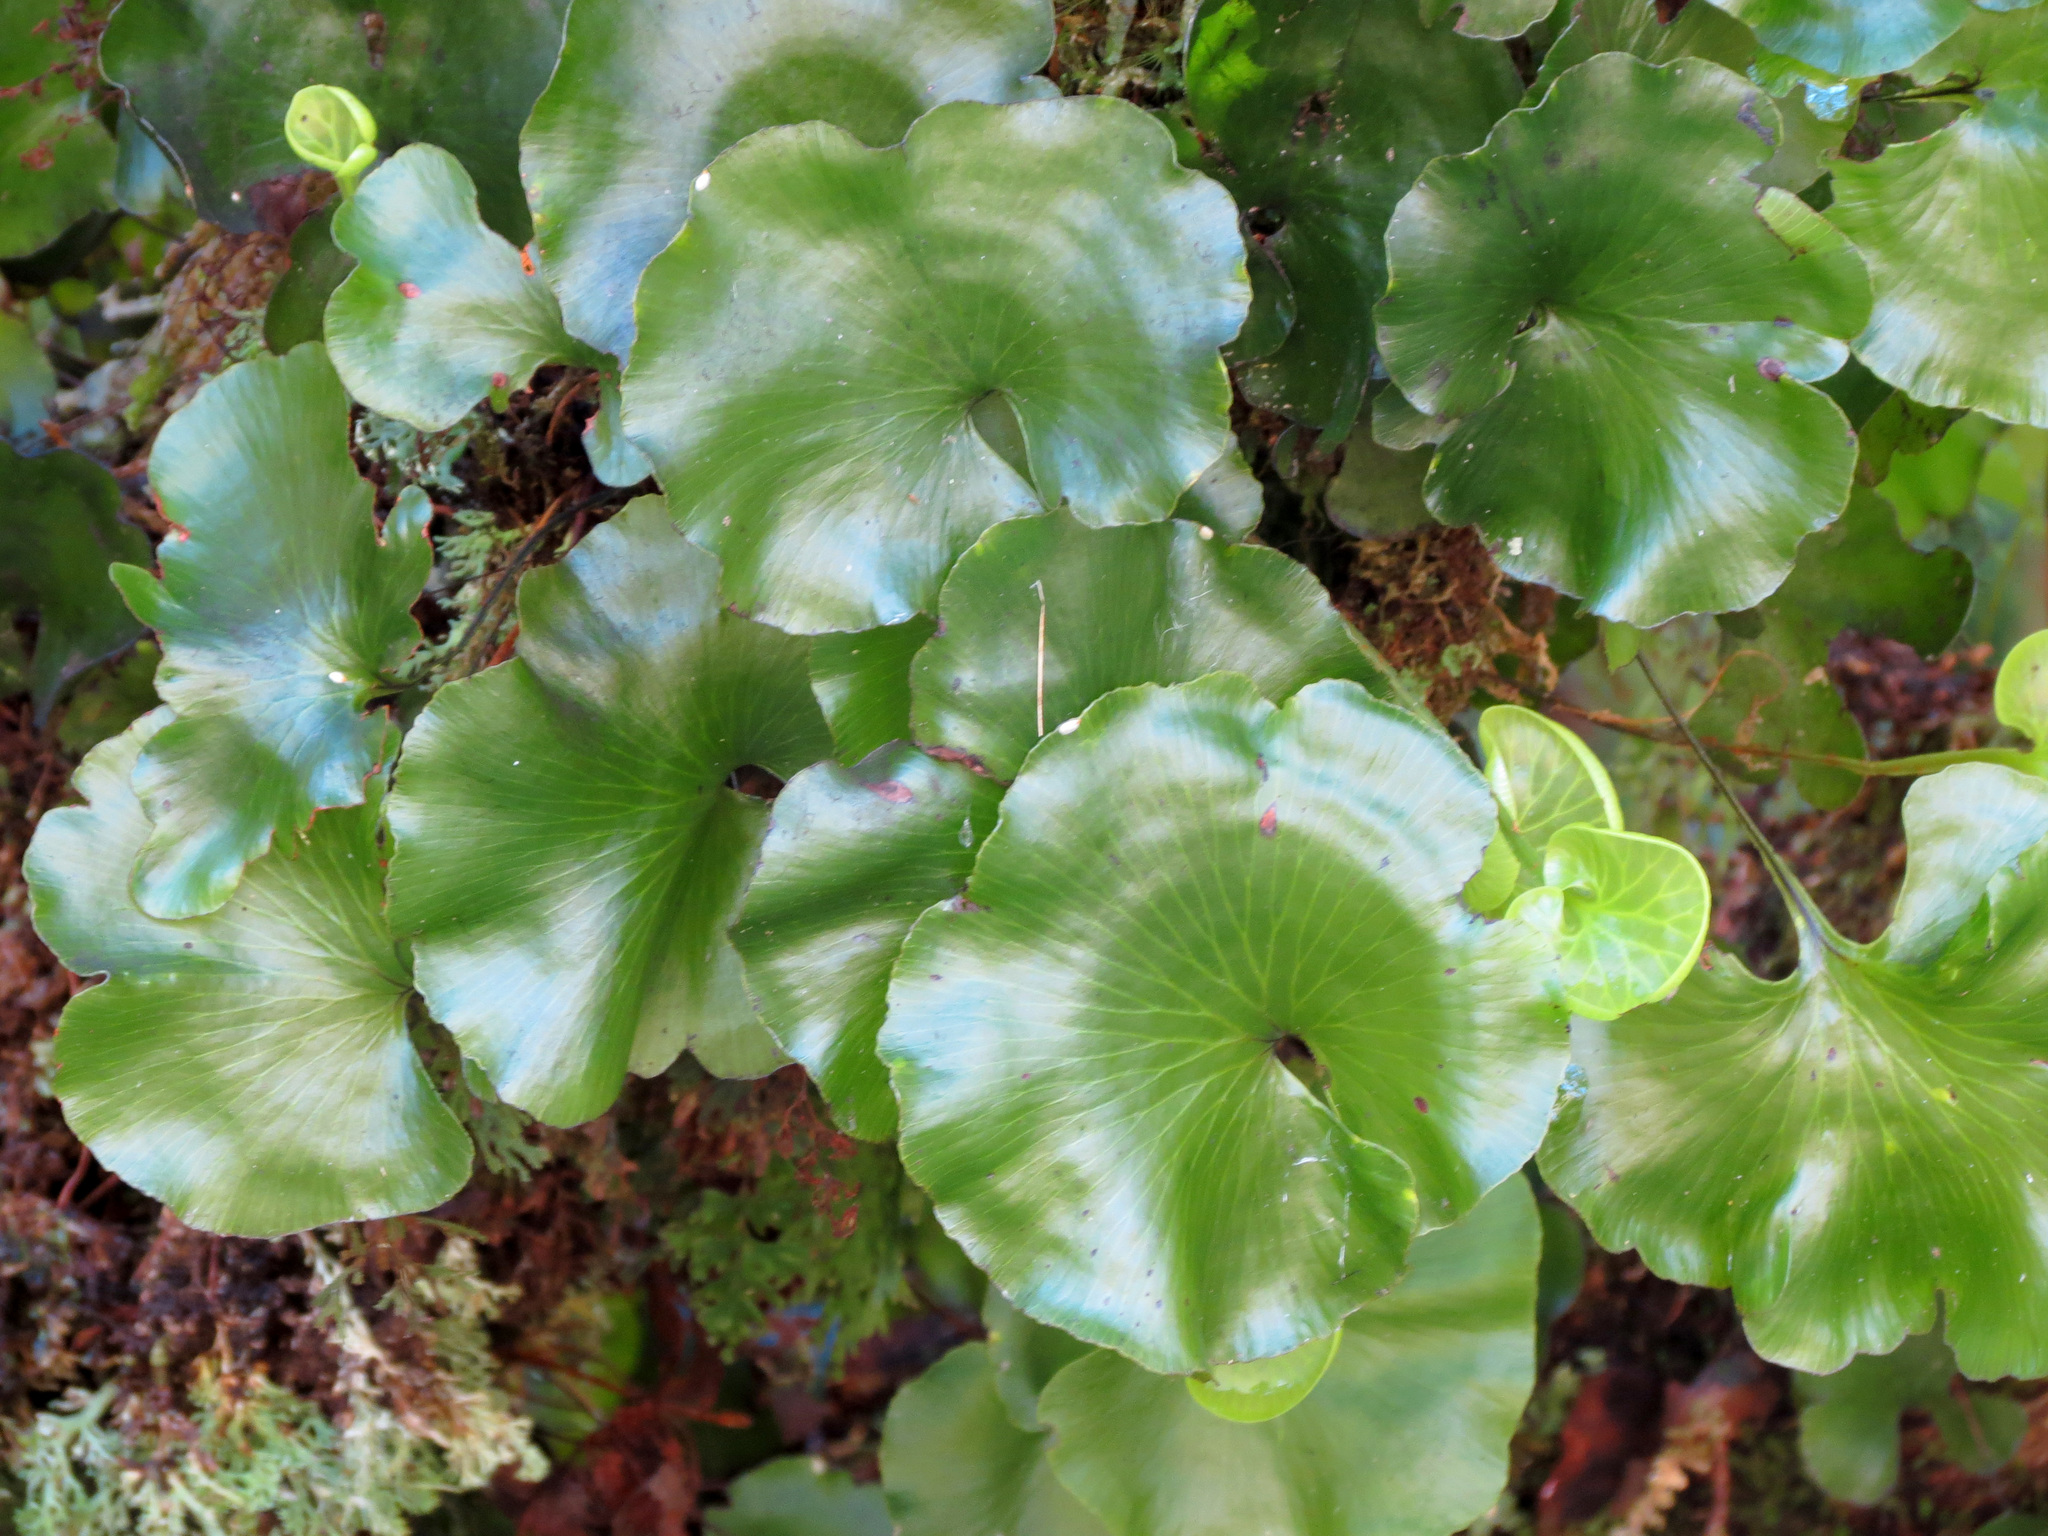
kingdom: Plantae
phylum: Tracheophyta
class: Polypodiopsida
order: Hymenophyllales
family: Hymenophyllaceae
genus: Hymenophyllum
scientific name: Hymenophyllum nephrophyllum
